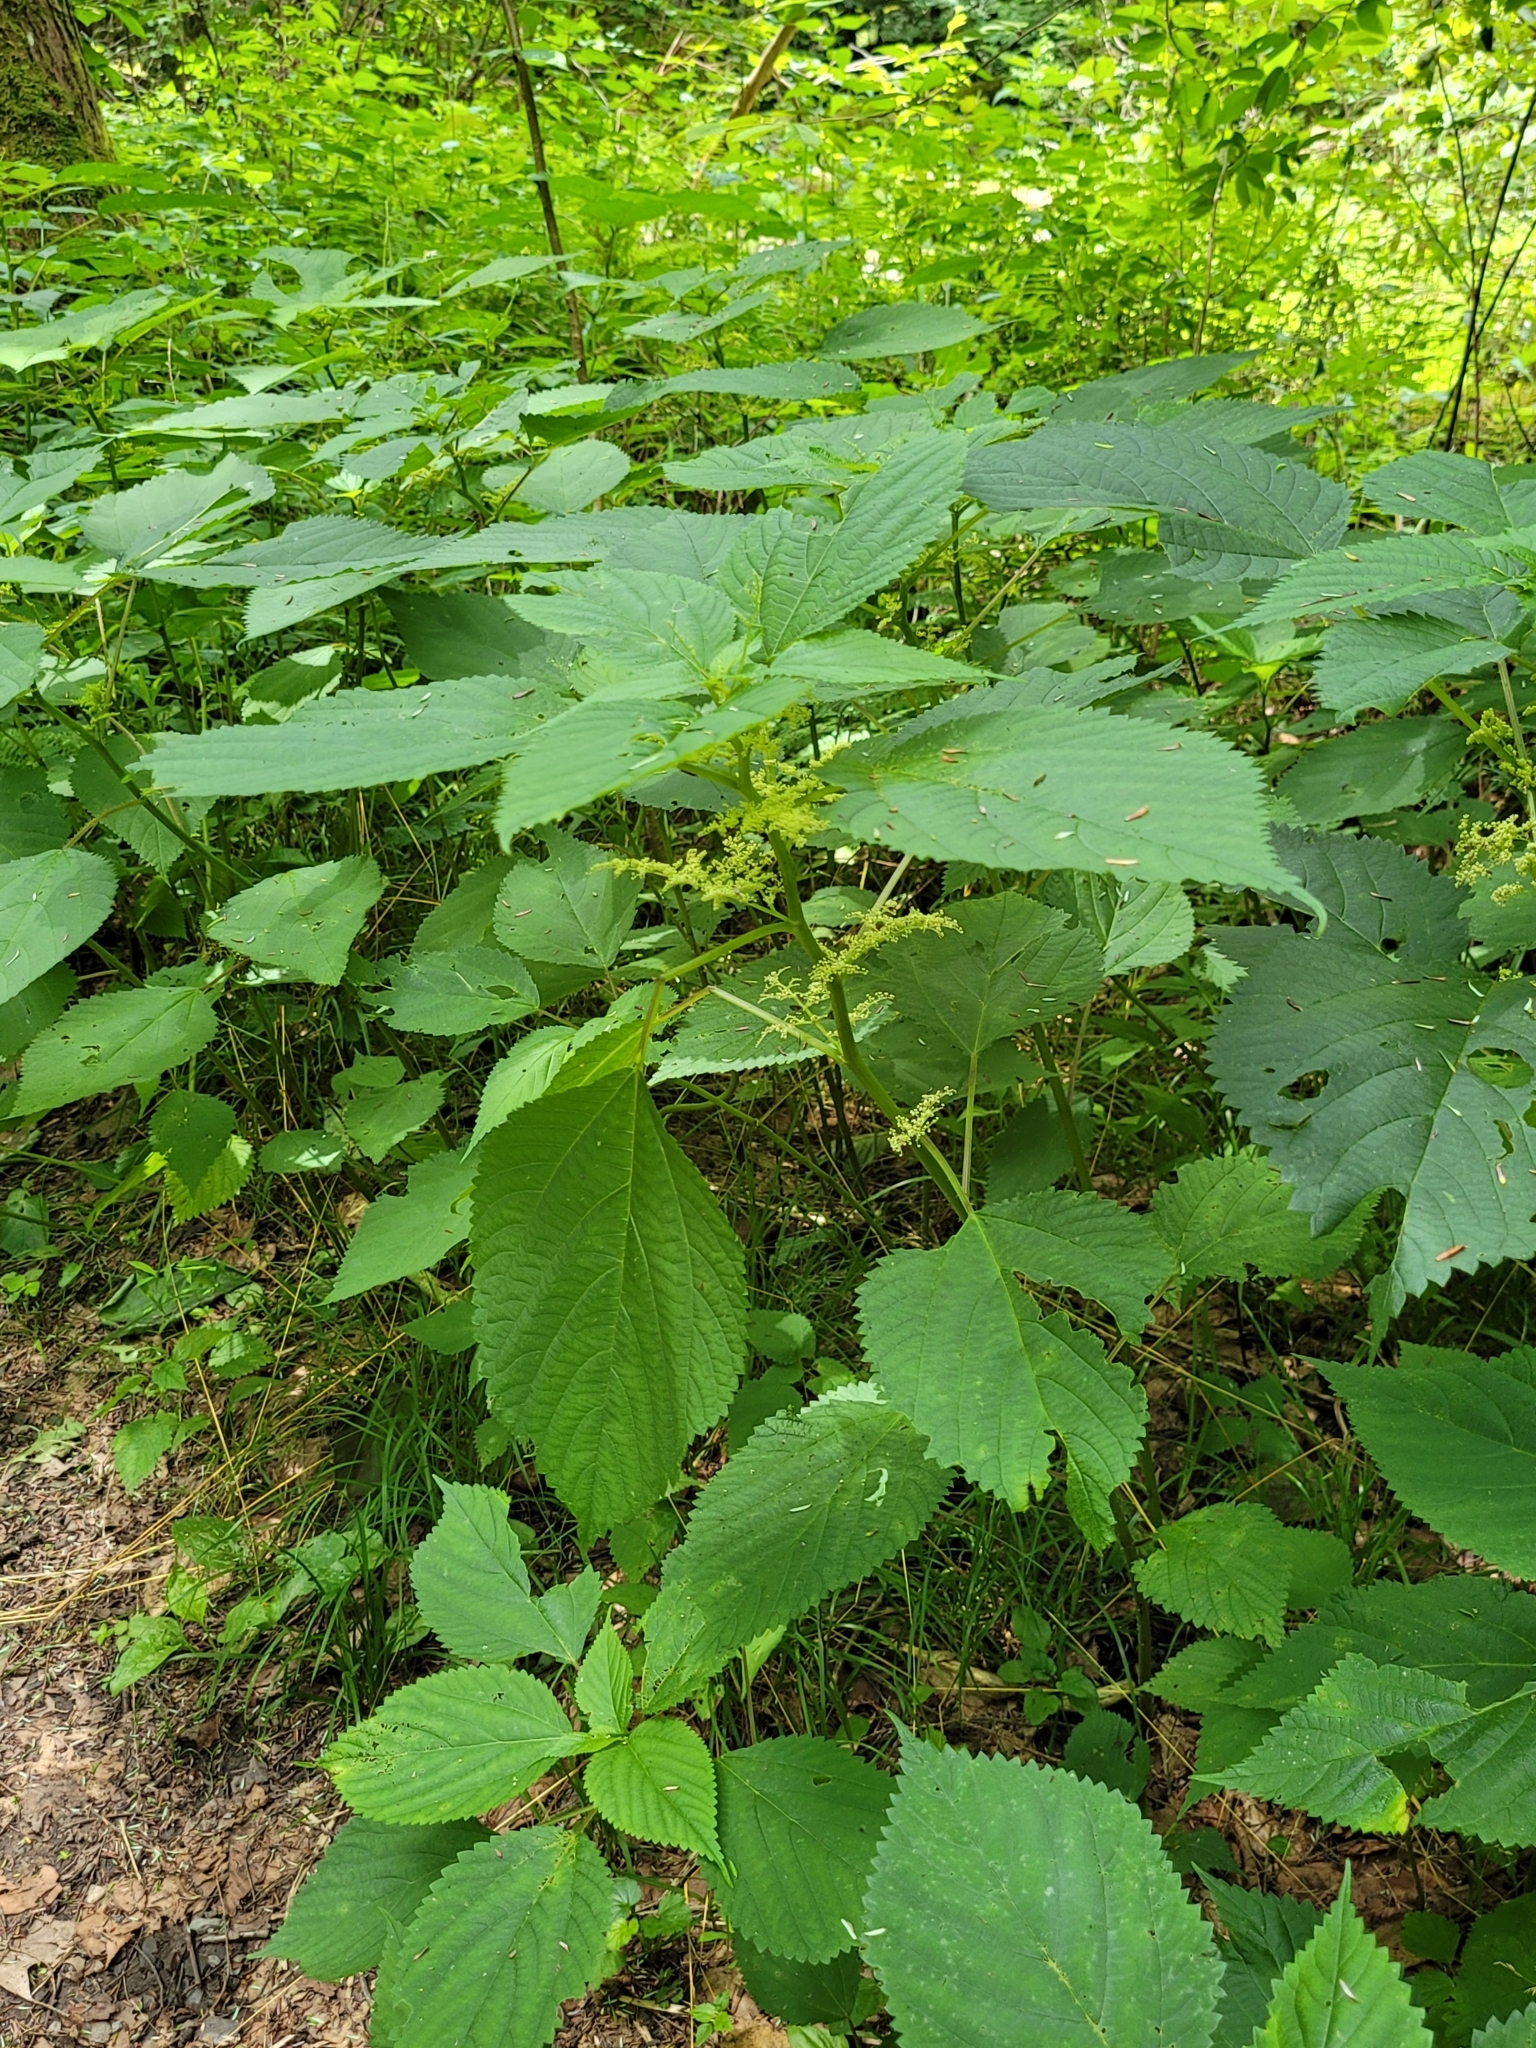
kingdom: Plantae
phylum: Tracheophyta
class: Magnoliopsida
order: Rosales
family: Urticaceae
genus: Laportea
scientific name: Laportea canadensis
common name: Canada nettle
